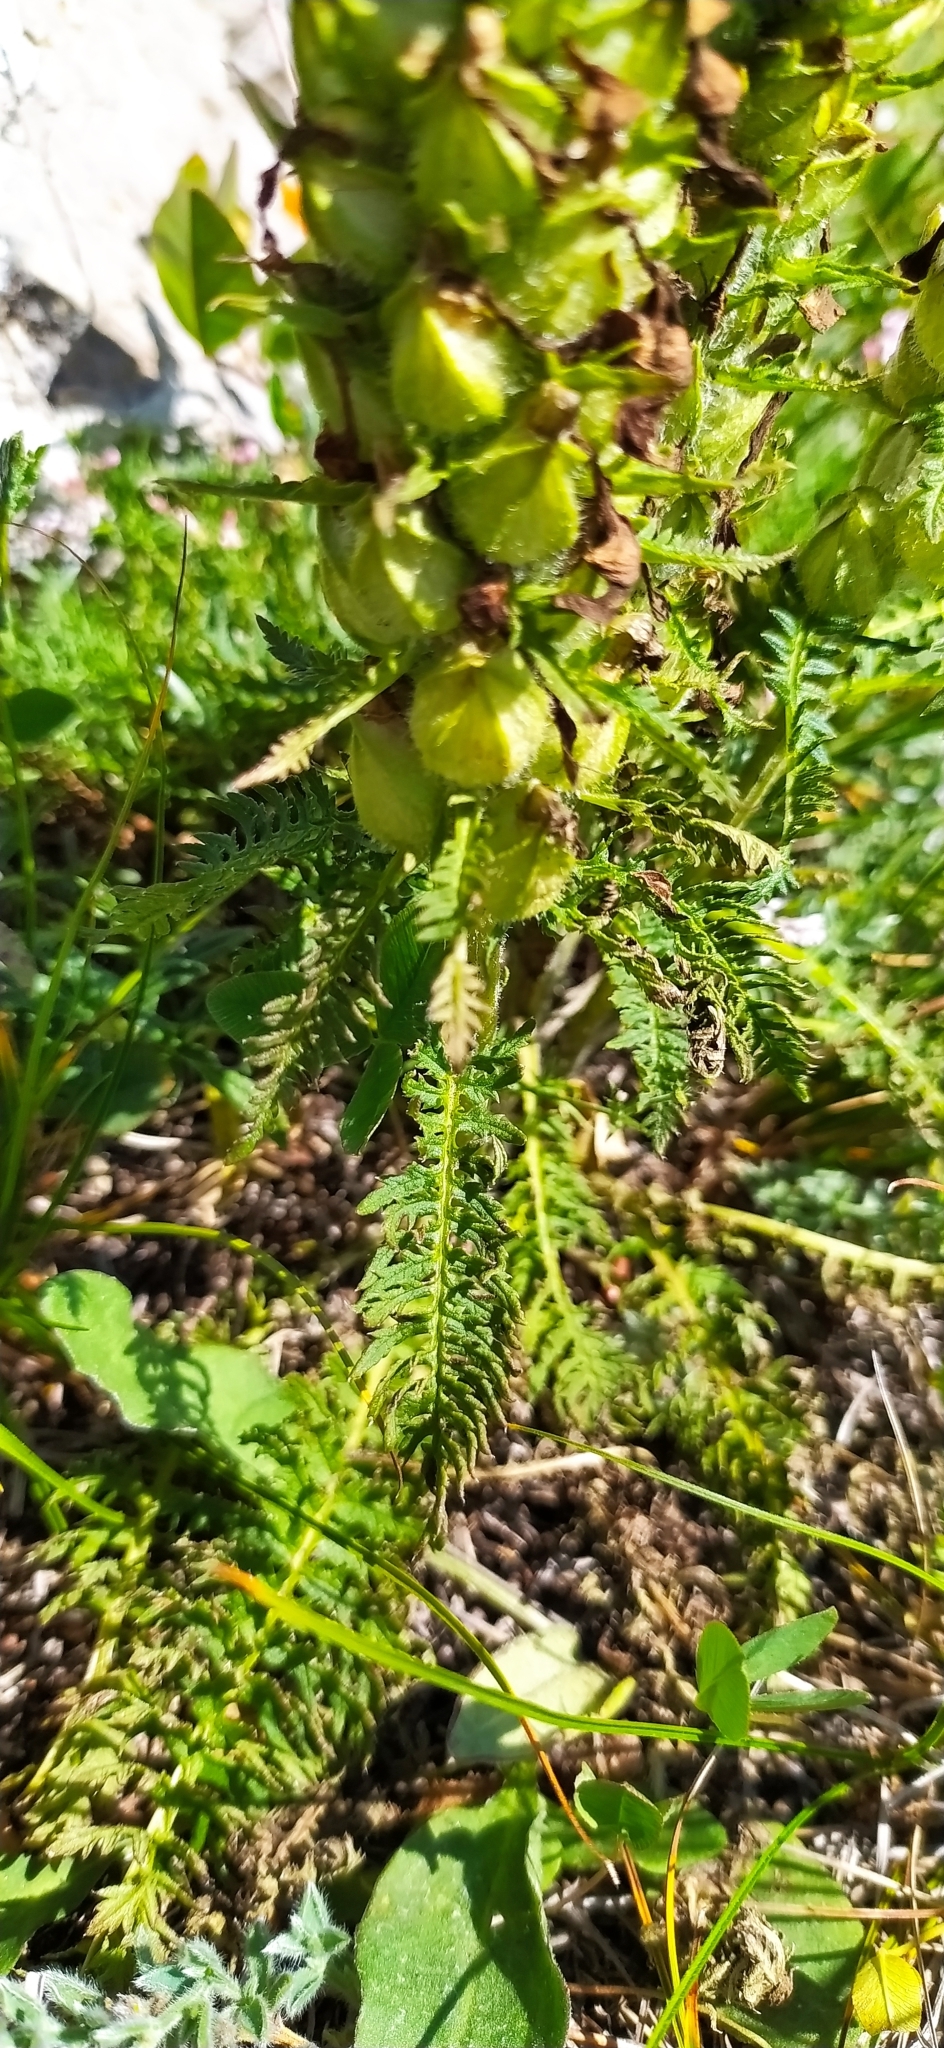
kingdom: Plantae
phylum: Tracheophyta
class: Magnoliopsida
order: Lamiales
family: Orobanchaceae
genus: Pedicularis
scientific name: Pedicularis sibthorpii
